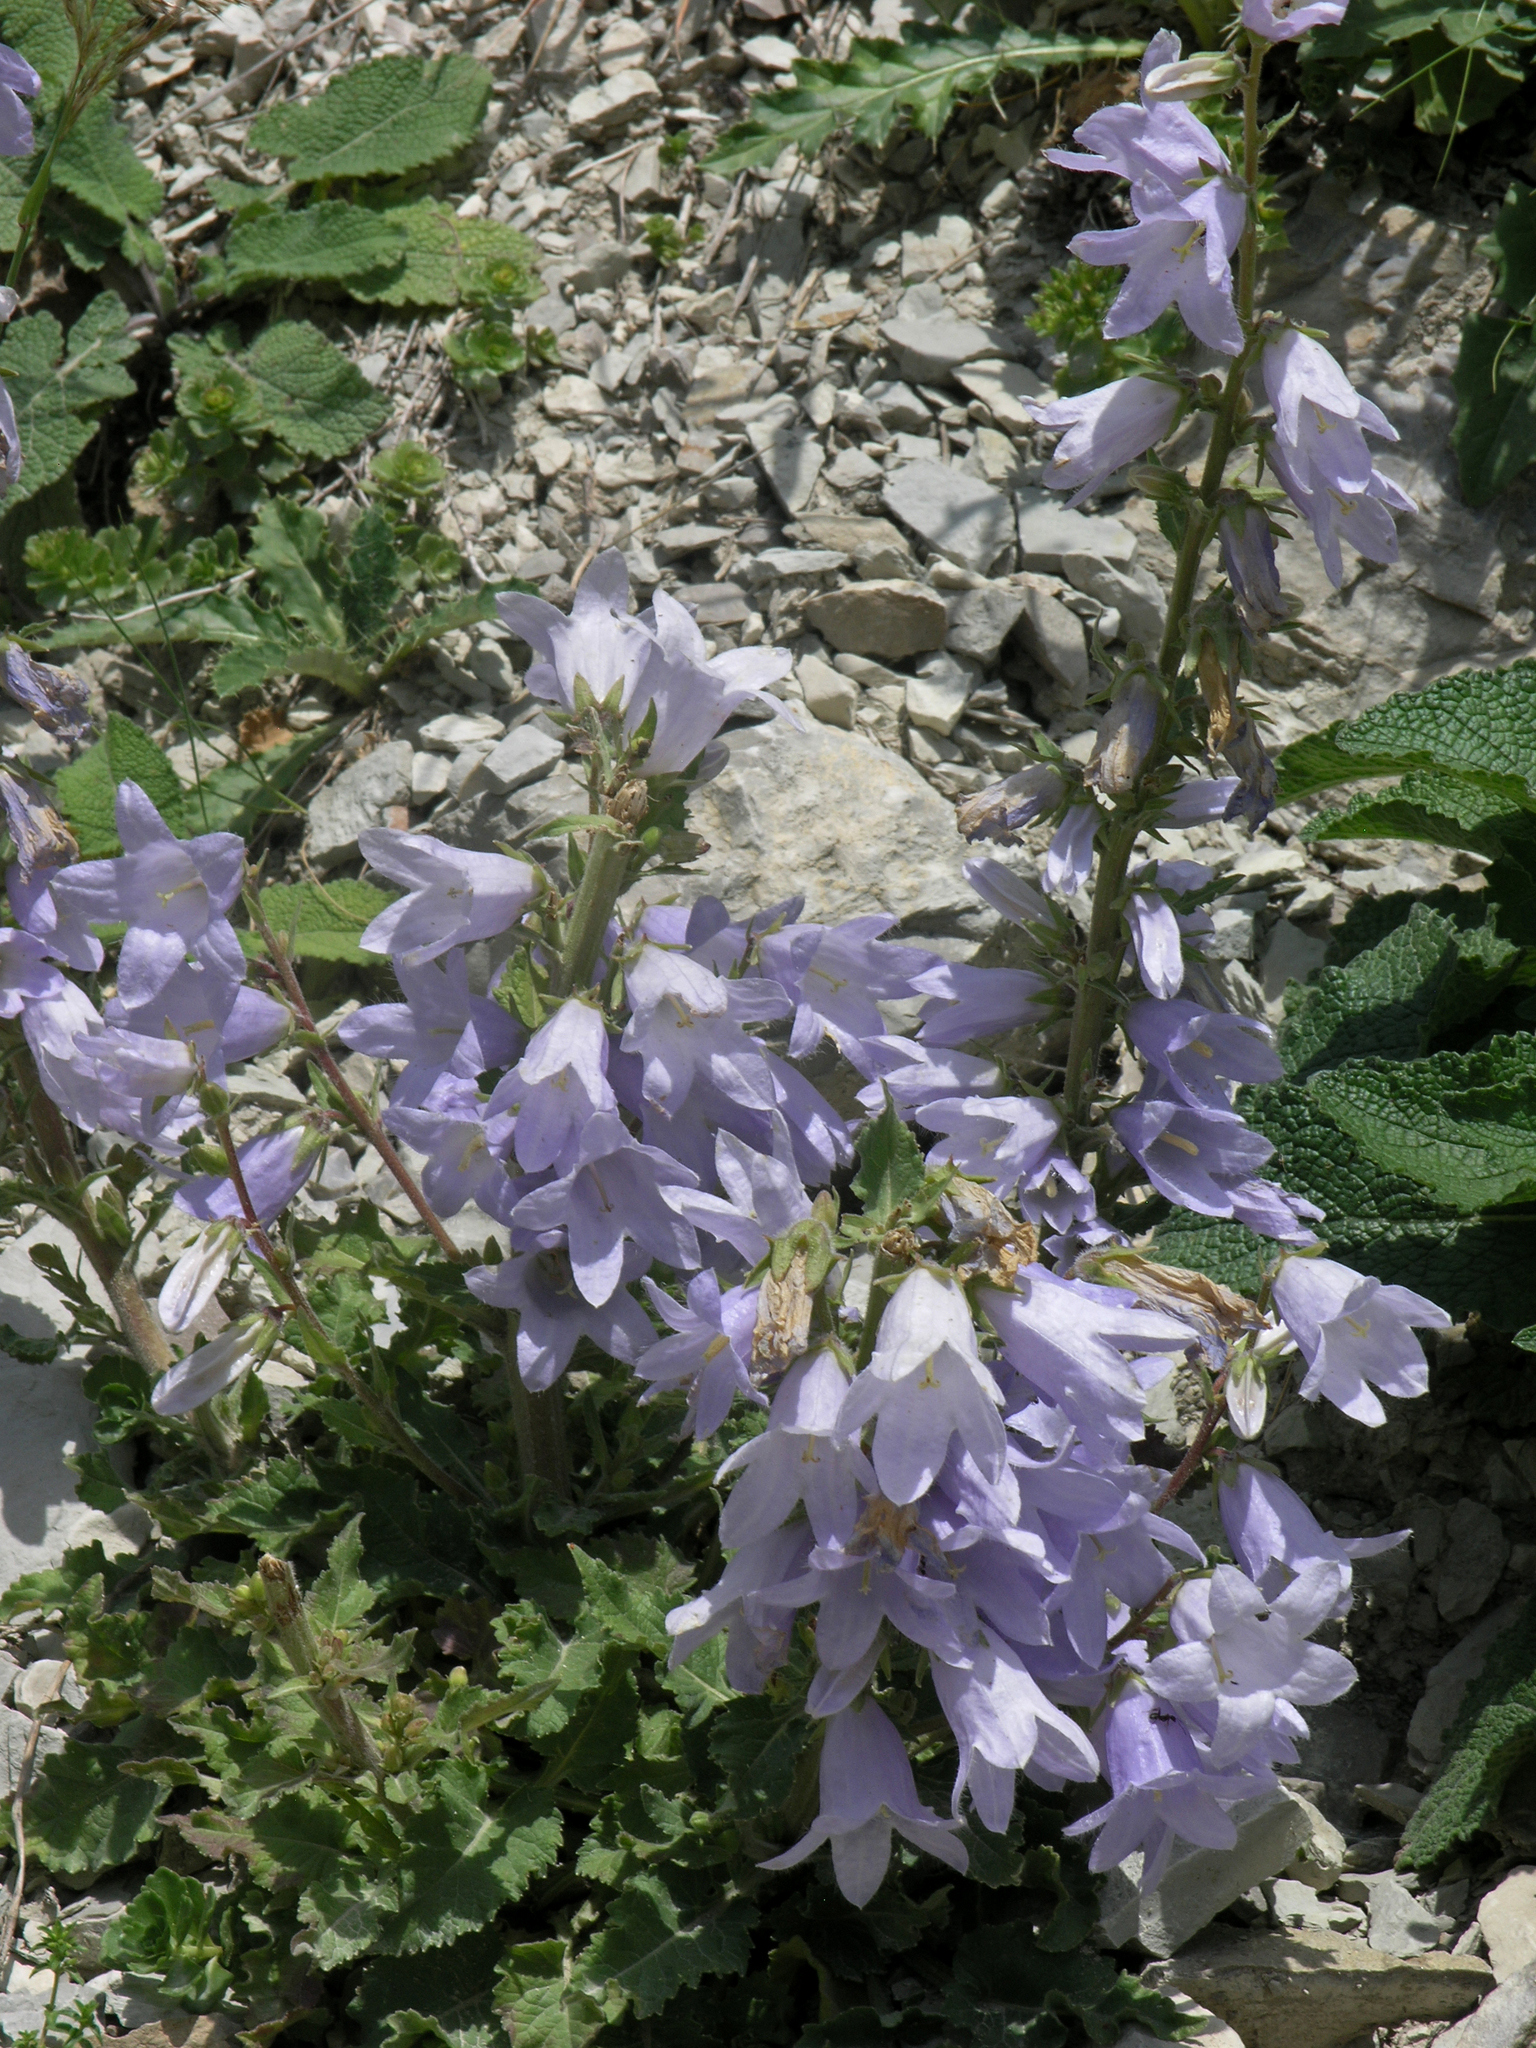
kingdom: Plantae
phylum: Tracheophyta
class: Magnoliopsida
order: Asterales
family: Campanulaceae
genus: Campanula
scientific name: Campanula sarmatica
